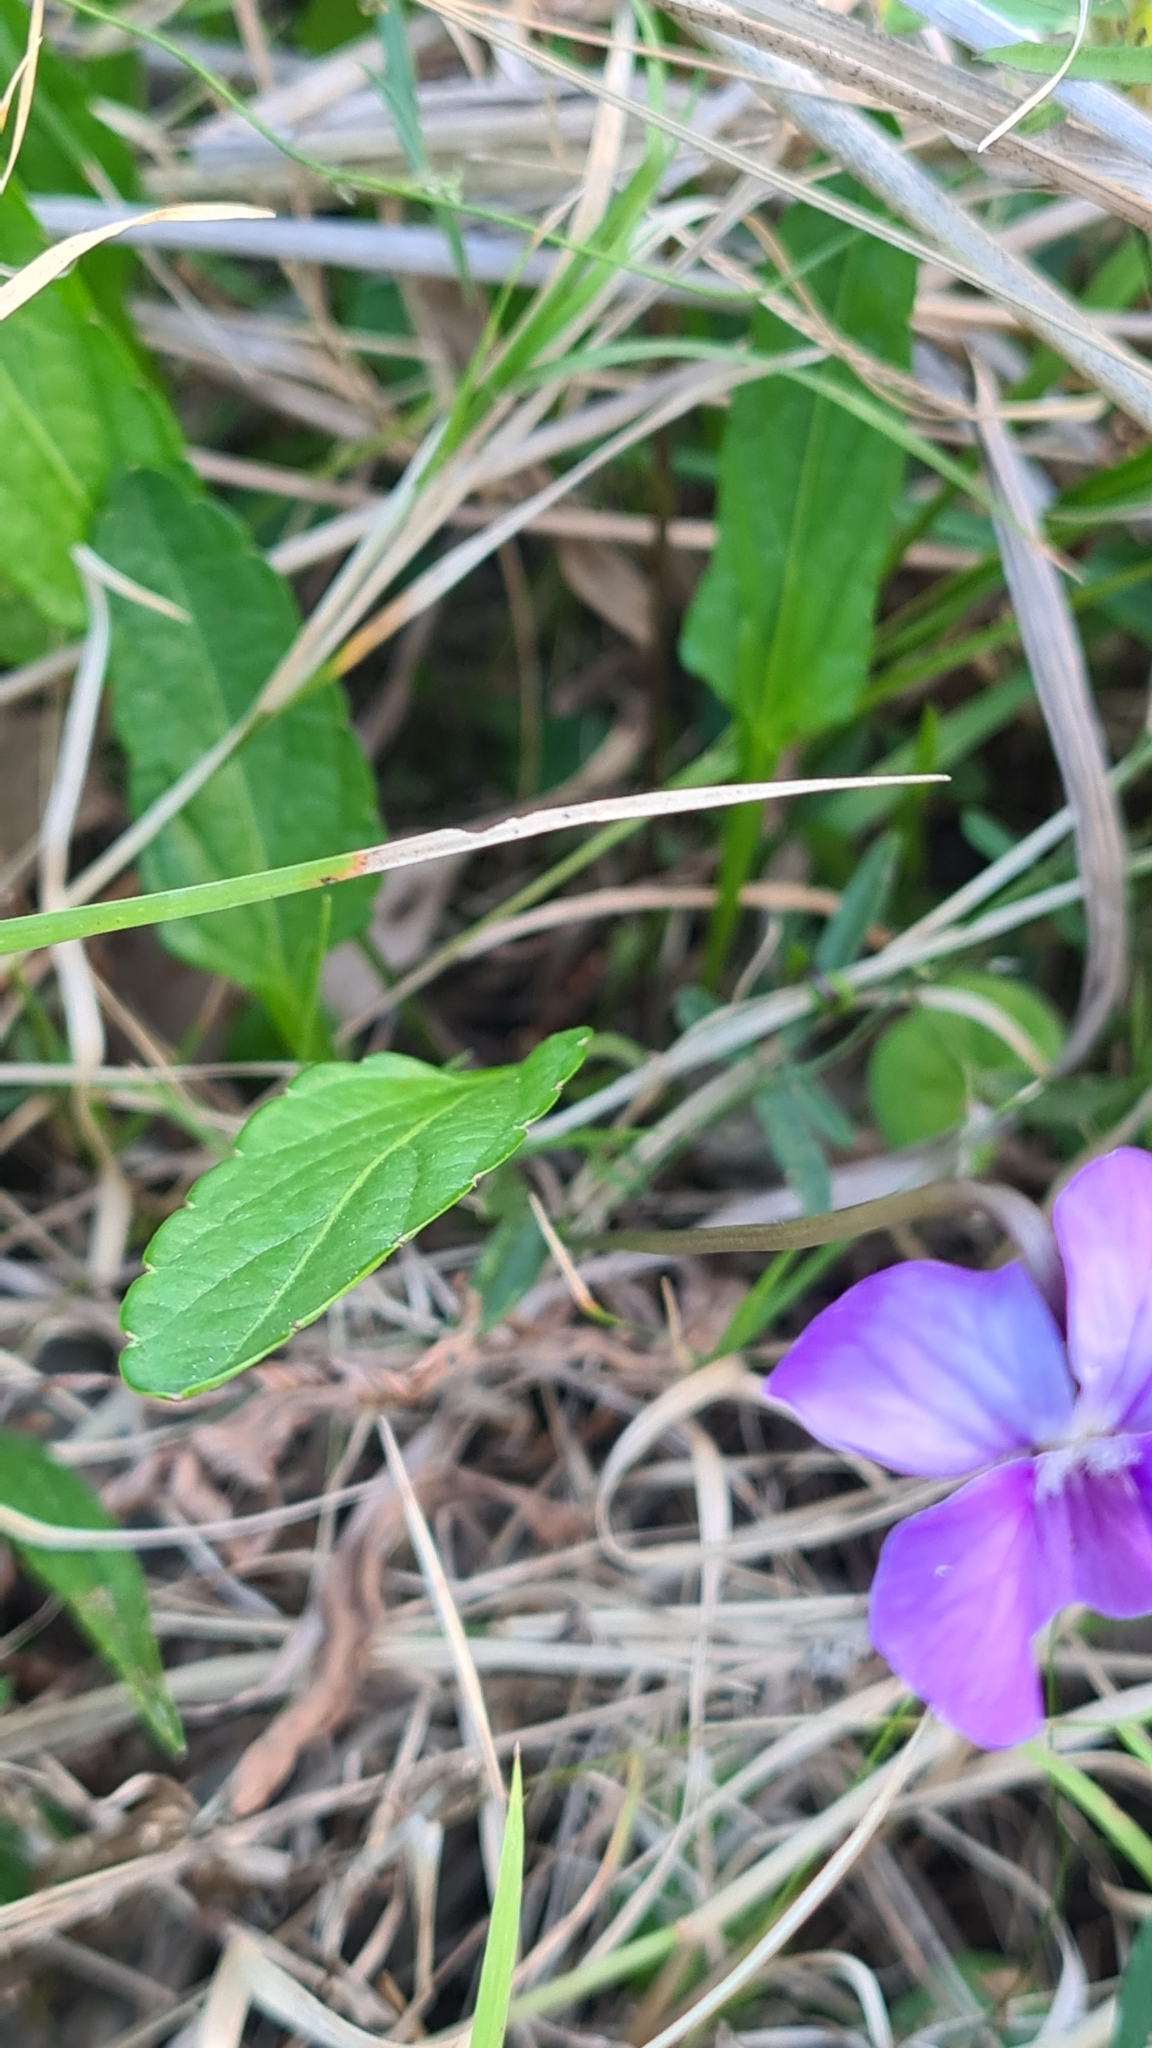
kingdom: Plantae
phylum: Tracheophyta
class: Magnoliopsida
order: Malpighiales
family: Violaceae
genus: Viola
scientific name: Viola betonicifolia
